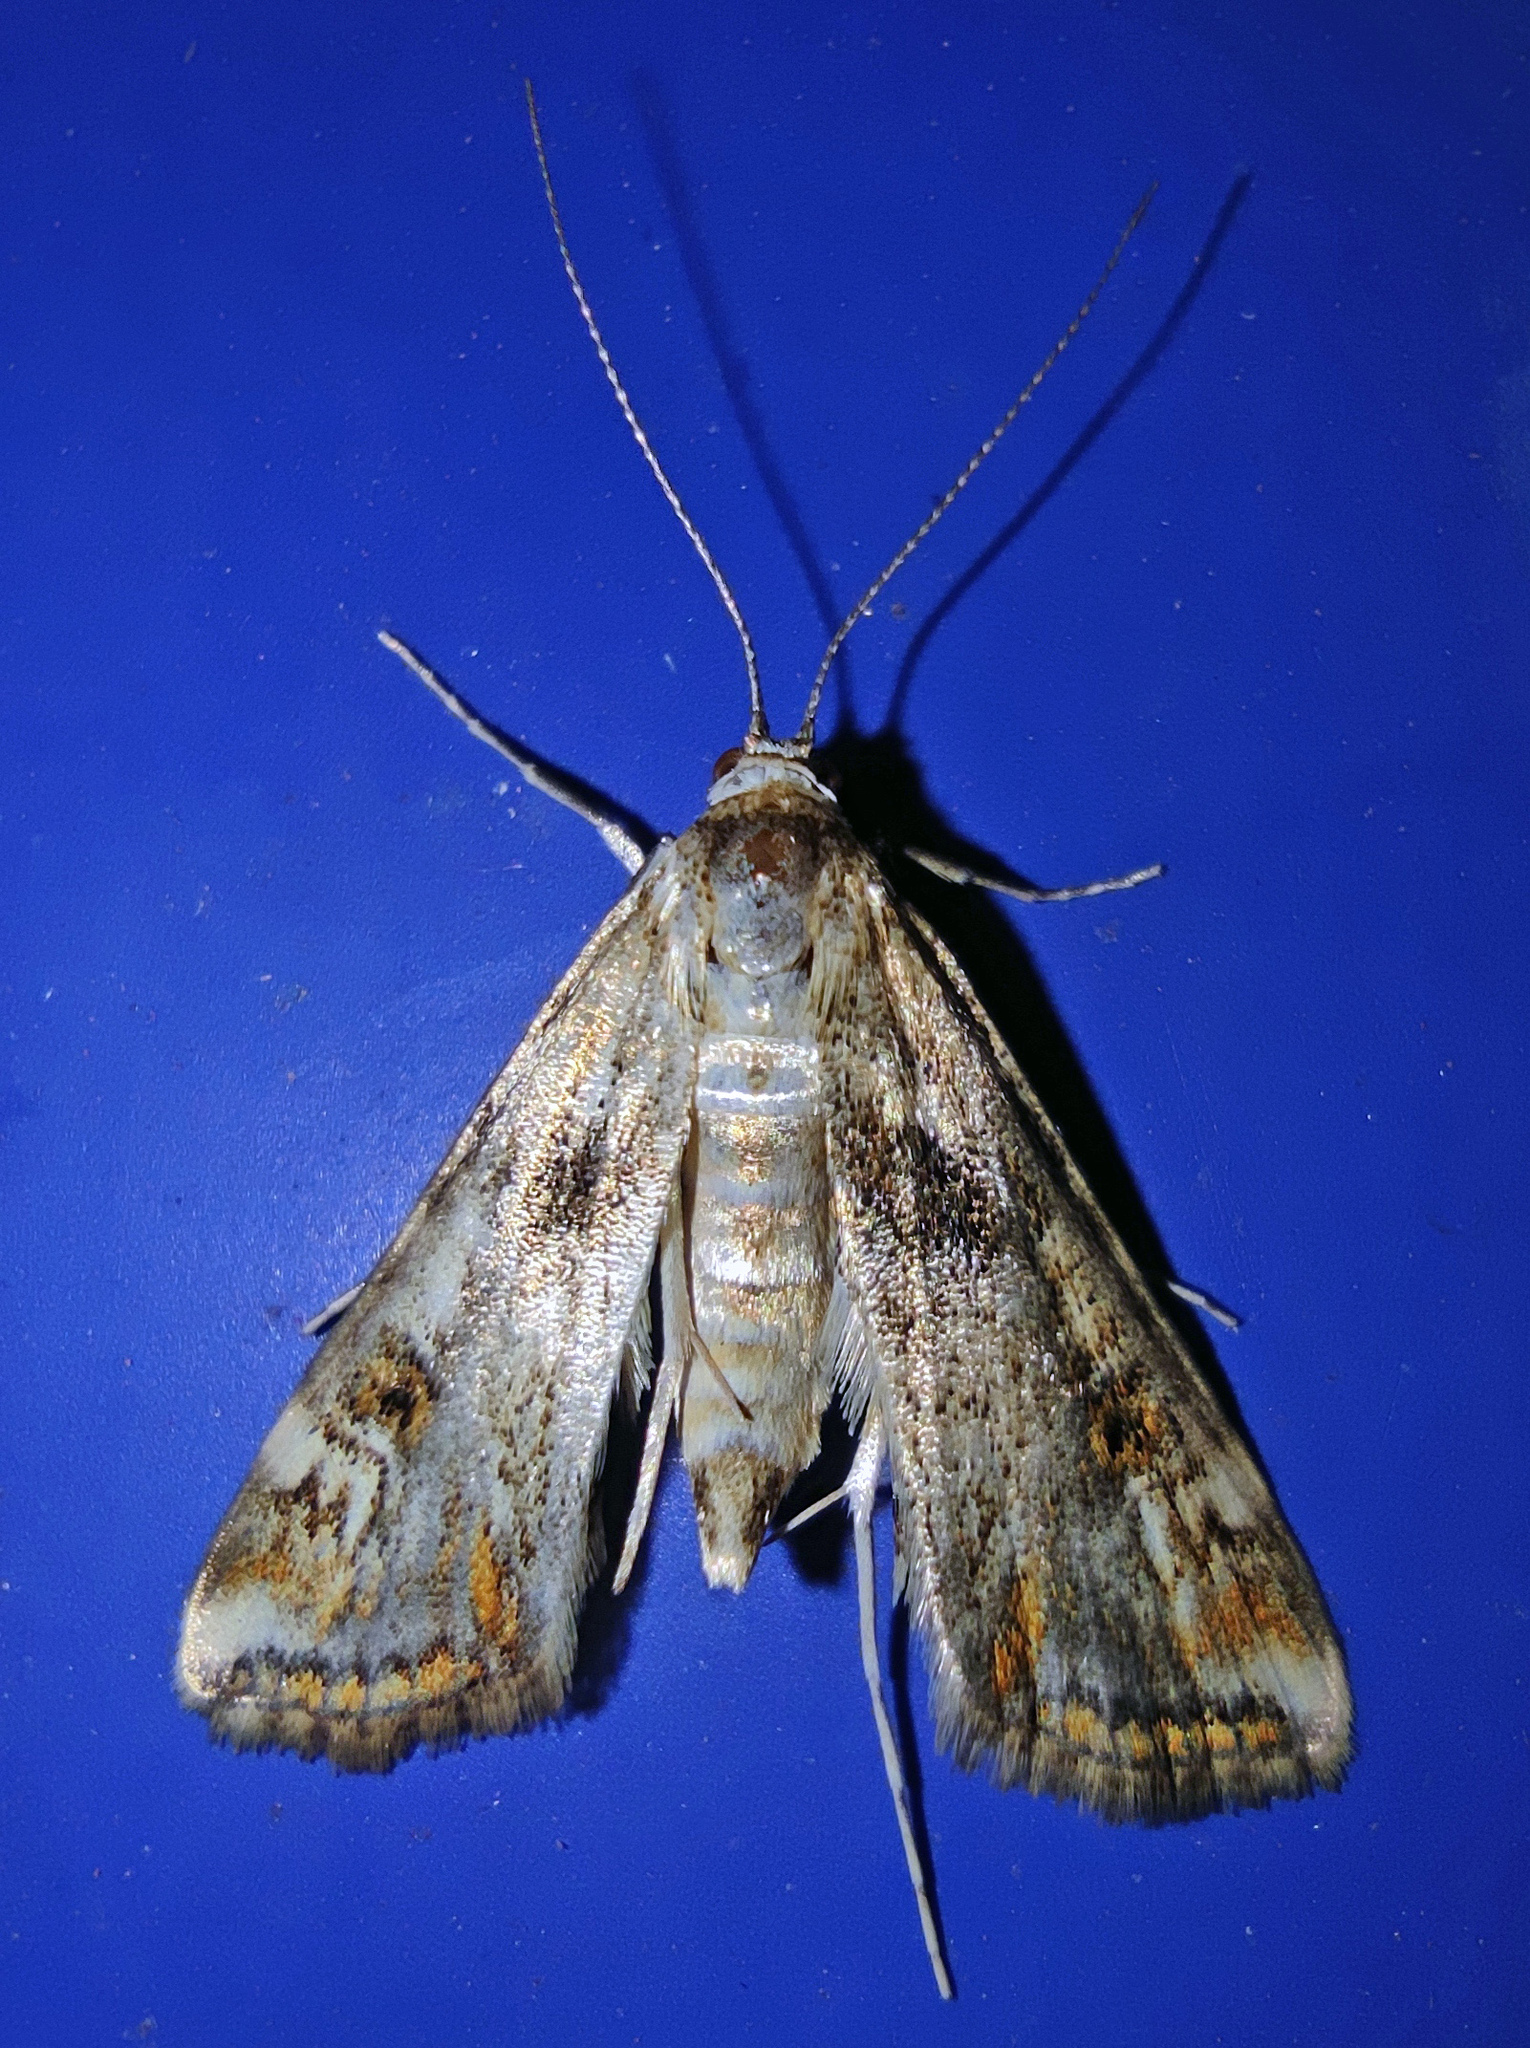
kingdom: Animalia
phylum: Arthropoda
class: Insecta
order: Lepidoptera
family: Crambidae
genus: Cataclysta
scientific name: Cataclysta lemnata
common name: Small china-mark
